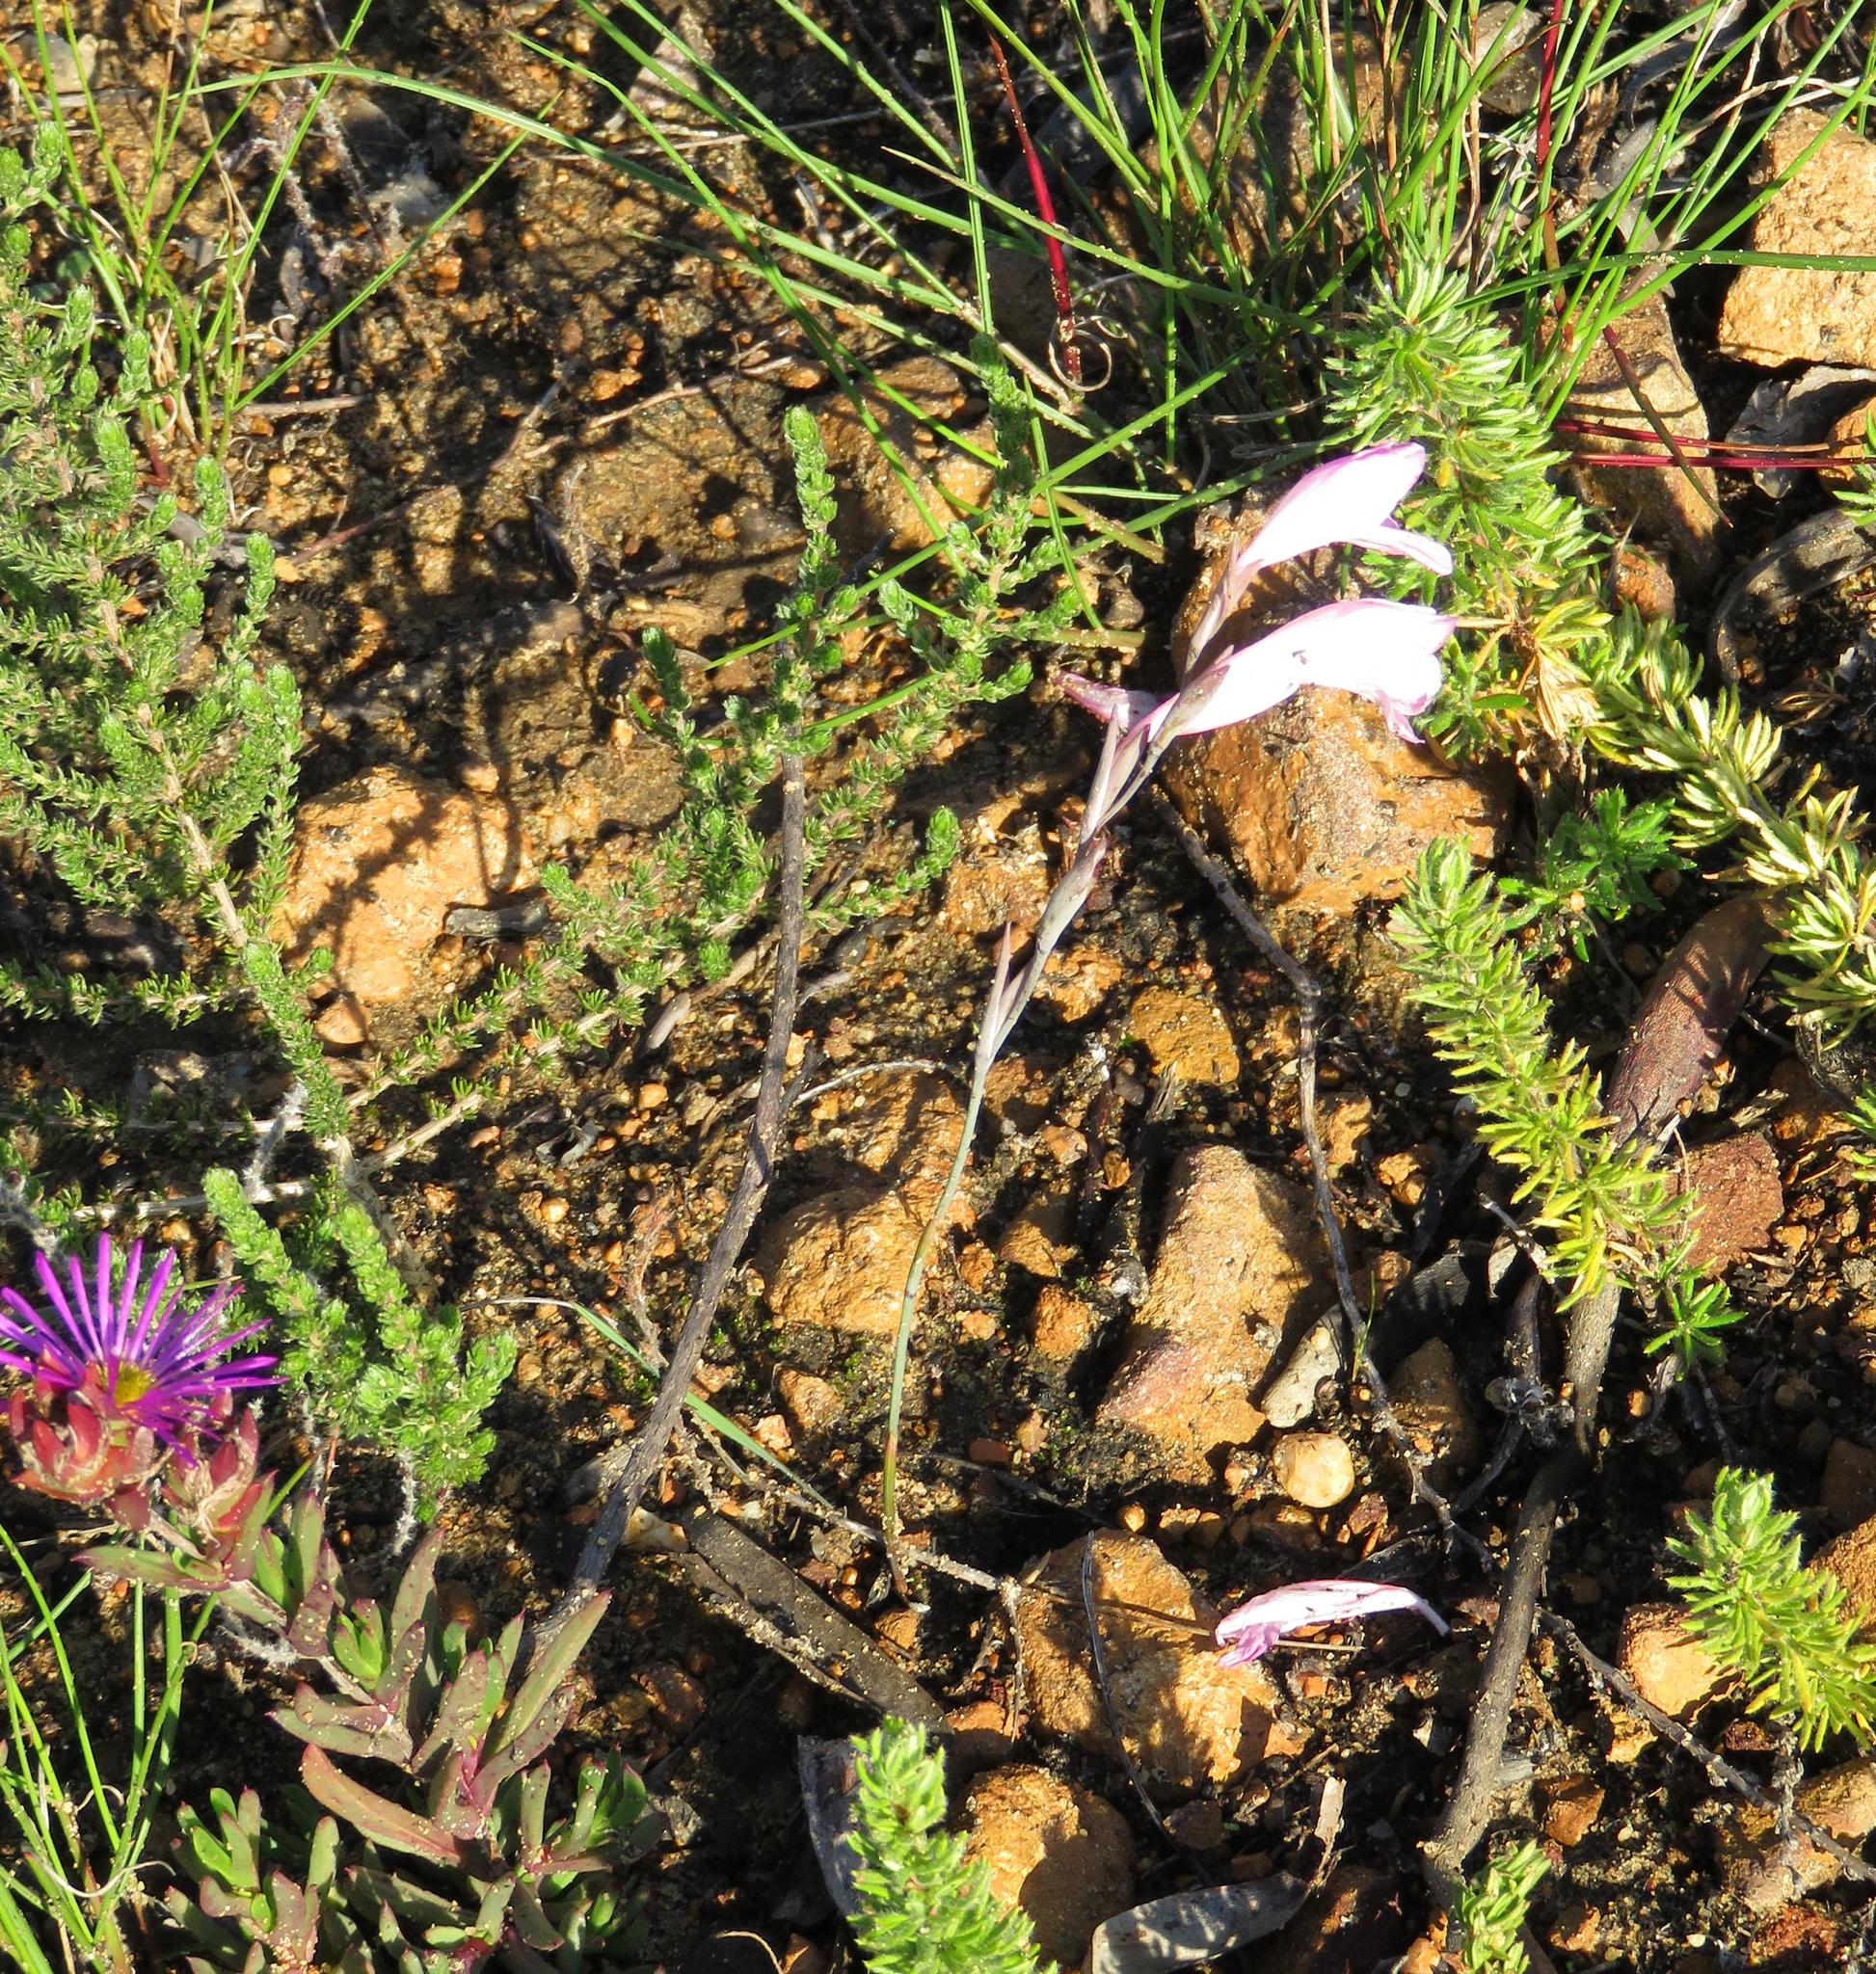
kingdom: Plantae
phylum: Tracheophyta
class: Liliopsida
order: Asparagales
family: Iridaceae
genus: Gladiolus
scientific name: Gladiolus brevifolius
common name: March pypie
